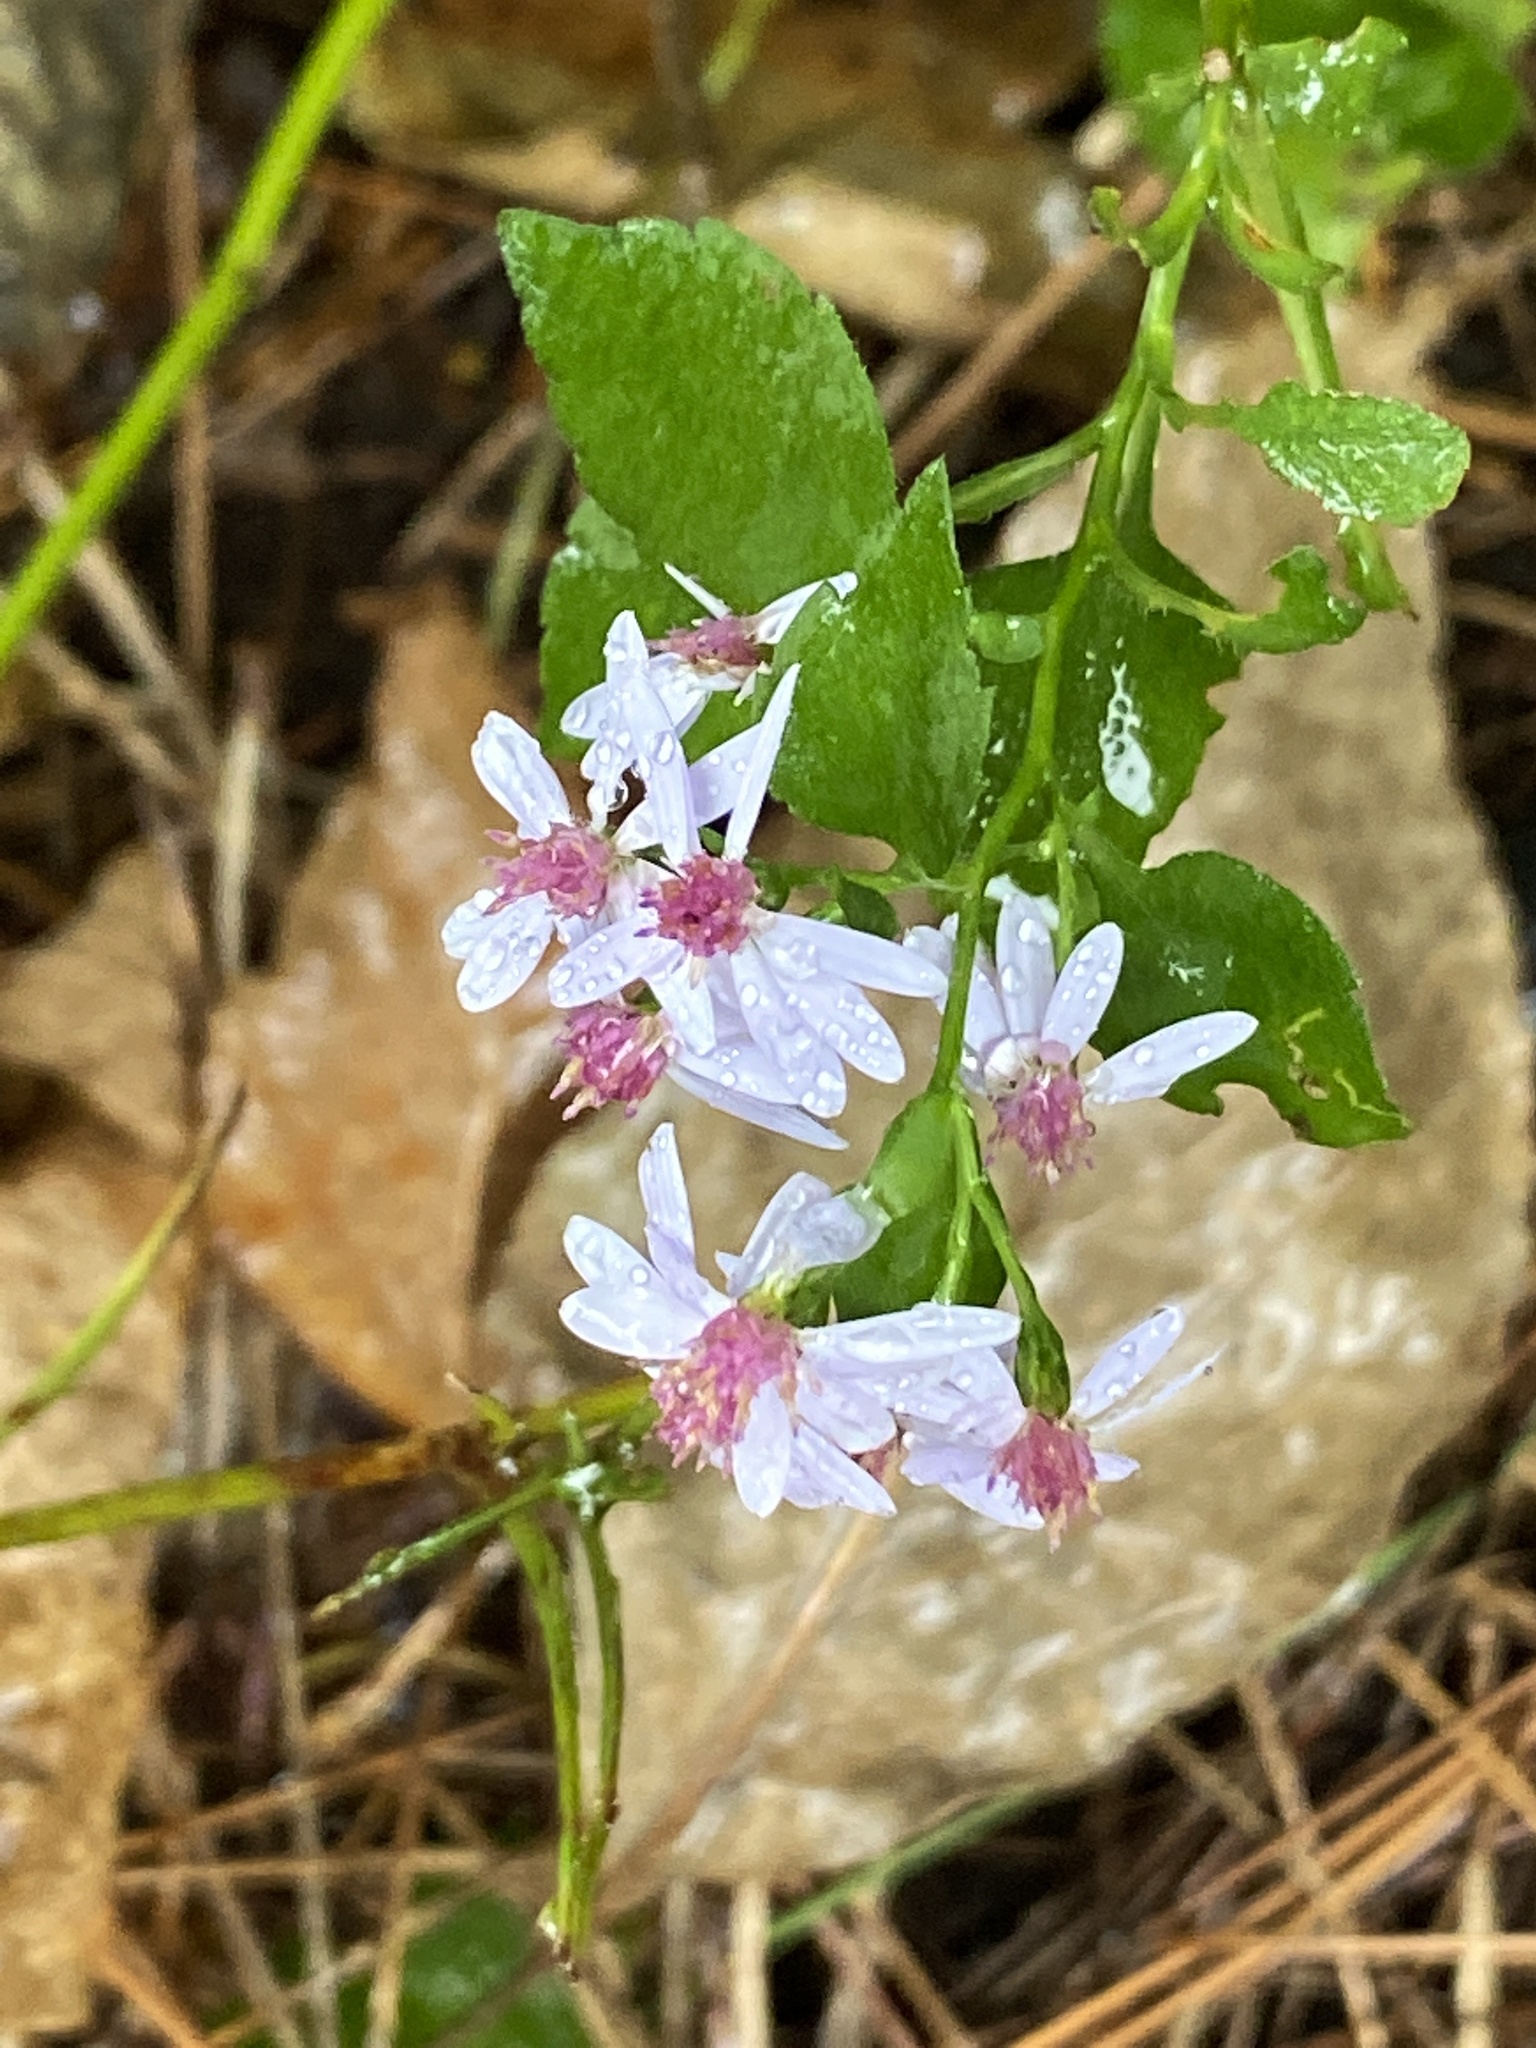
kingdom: Plantae
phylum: Tracheophyta
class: Magnoliopsida
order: Asterales
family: Asteraceae
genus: Symphyotrichum
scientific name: Symphyotrichum cordifolium
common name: Beeweed
